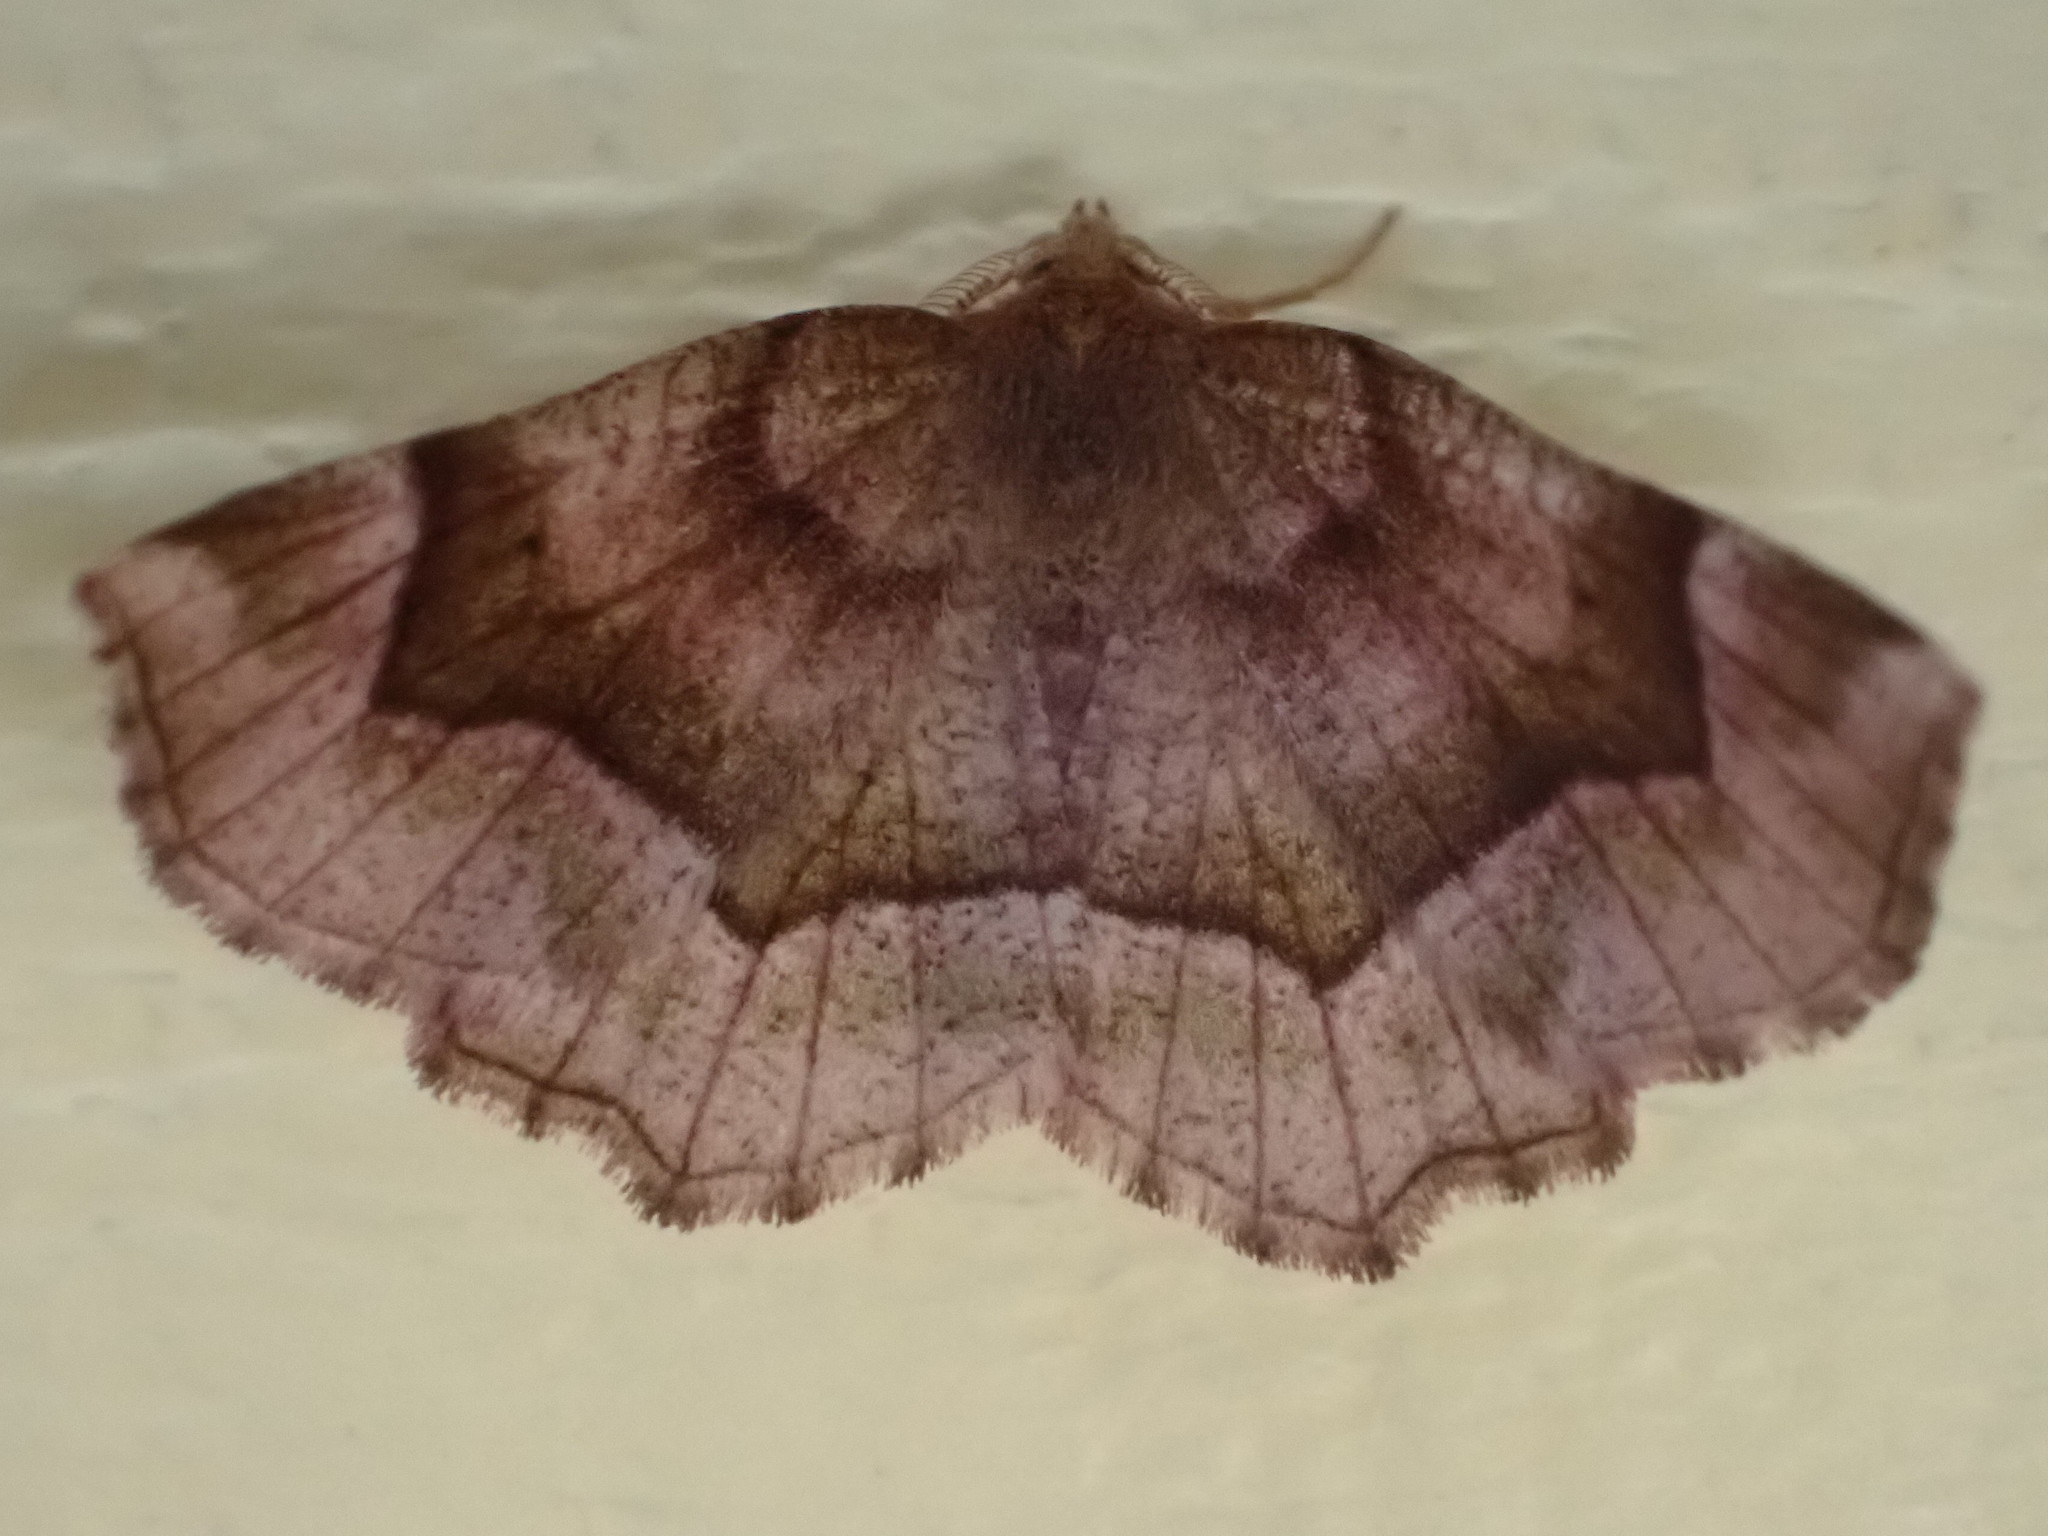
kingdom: Animalia
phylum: Arthropoda
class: Insecta
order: Lepidoptera
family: Geometridae
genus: Metarranthis
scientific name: Metarranthis refractaria
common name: Refracted metarranthis moth
